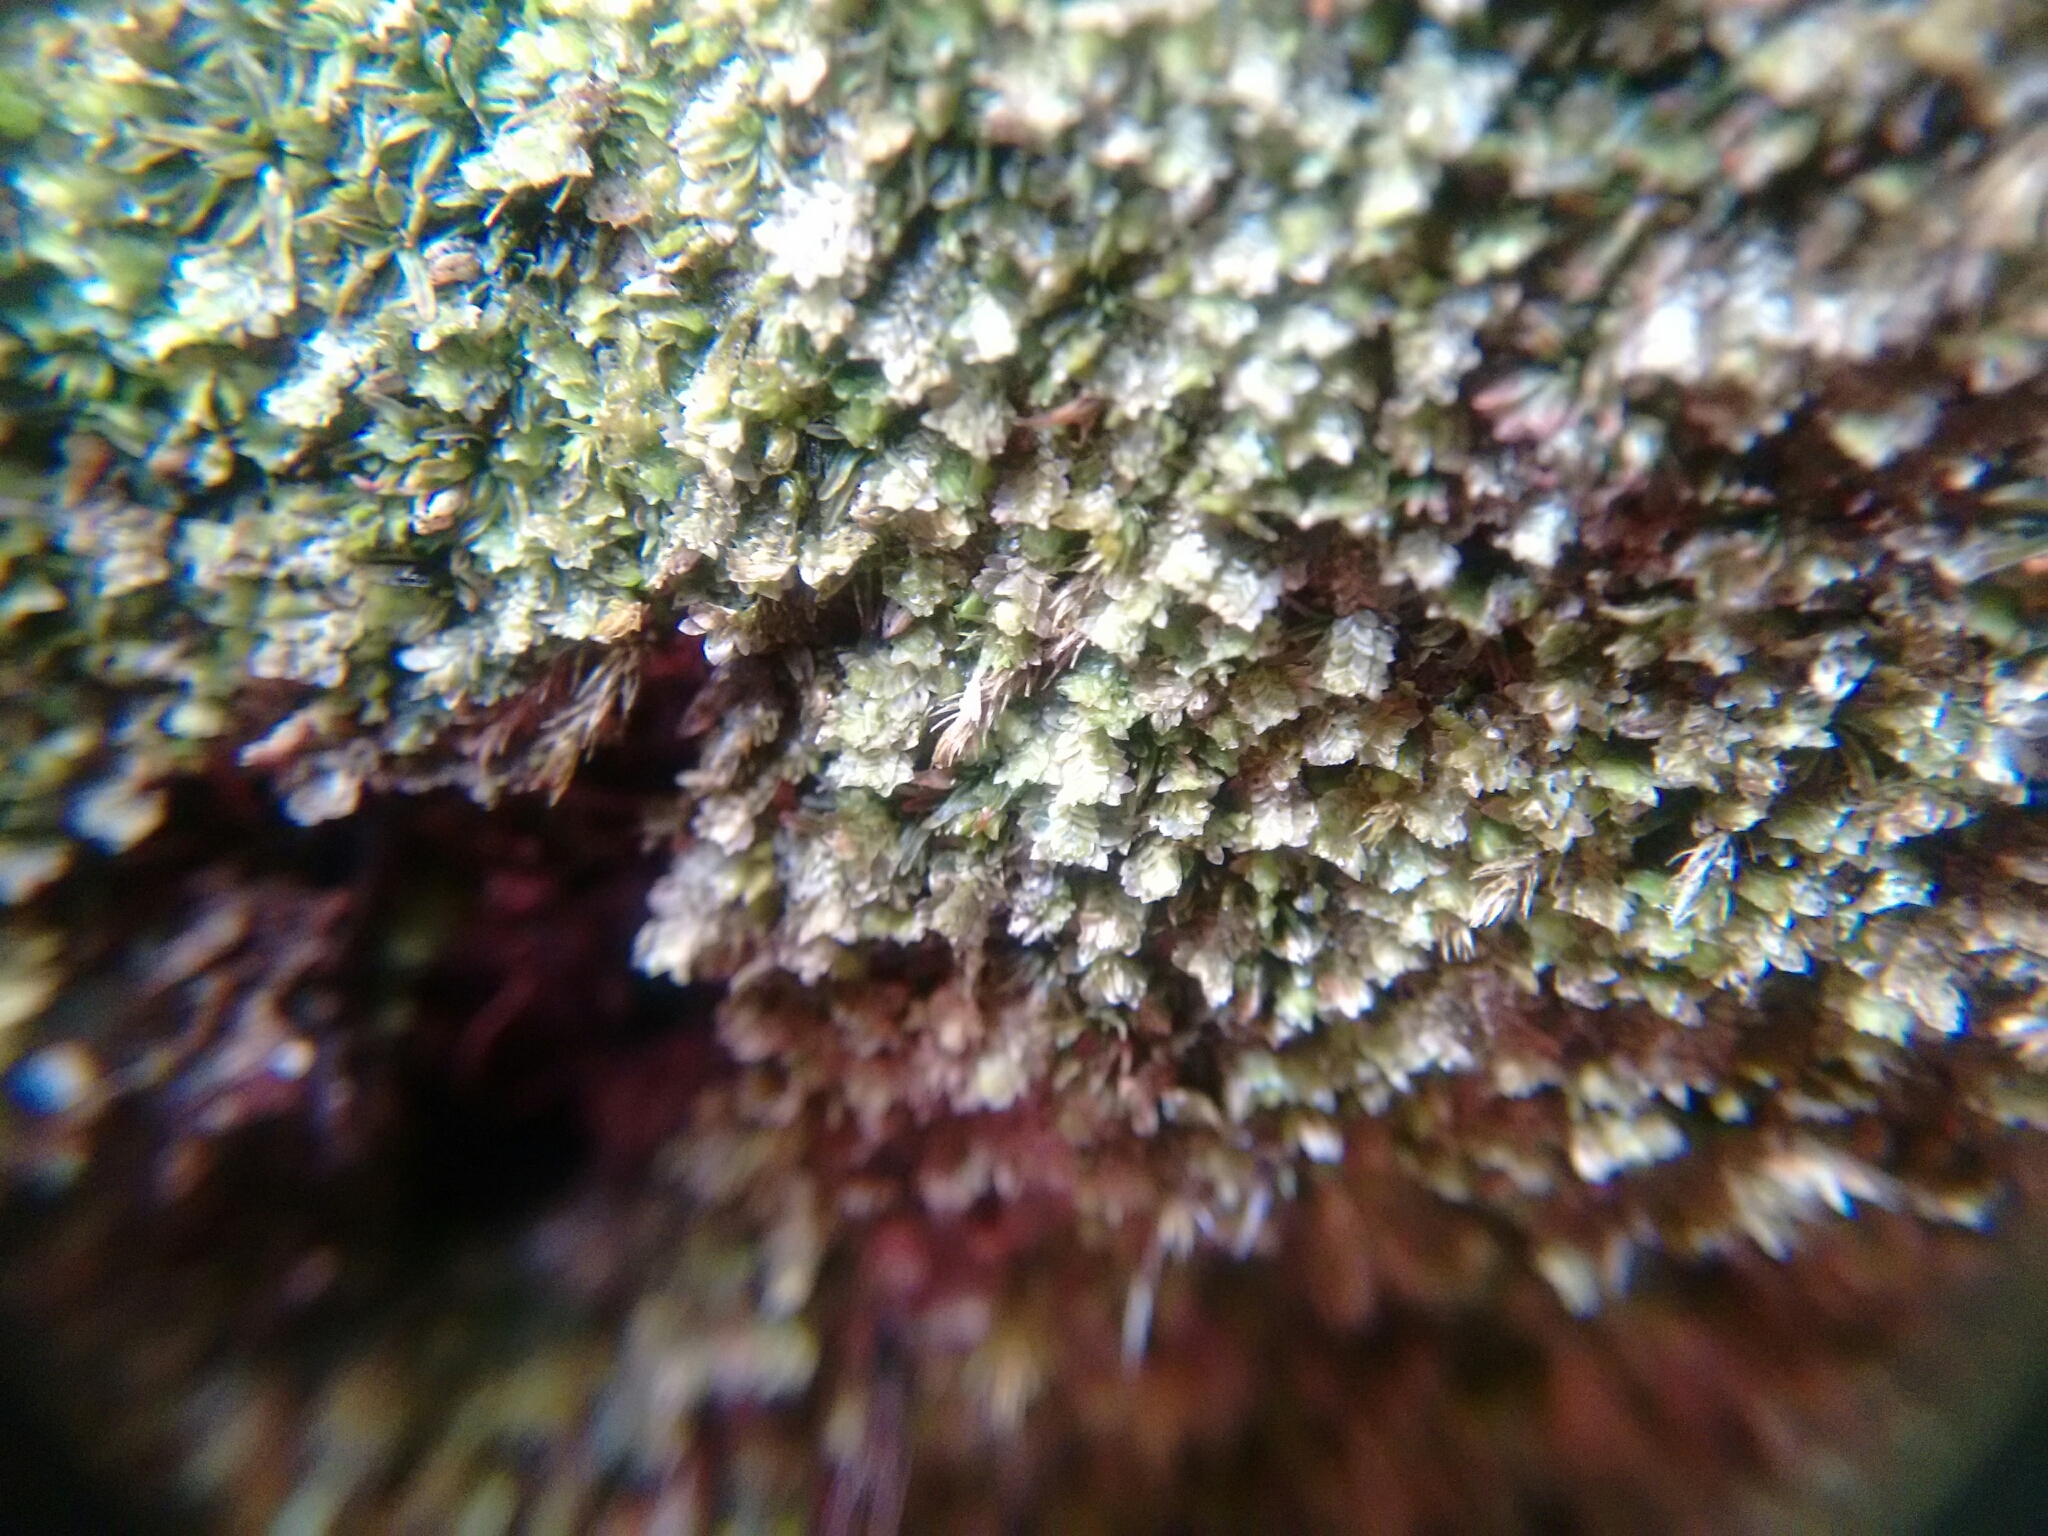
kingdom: Plantae
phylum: Marchantiophyta
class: Jungermanniopsida
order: Jungermanniales
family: Scapaniaceae
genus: Diplophyllum
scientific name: Diplophyllum apiculatum
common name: Sharp-pointed earwort
